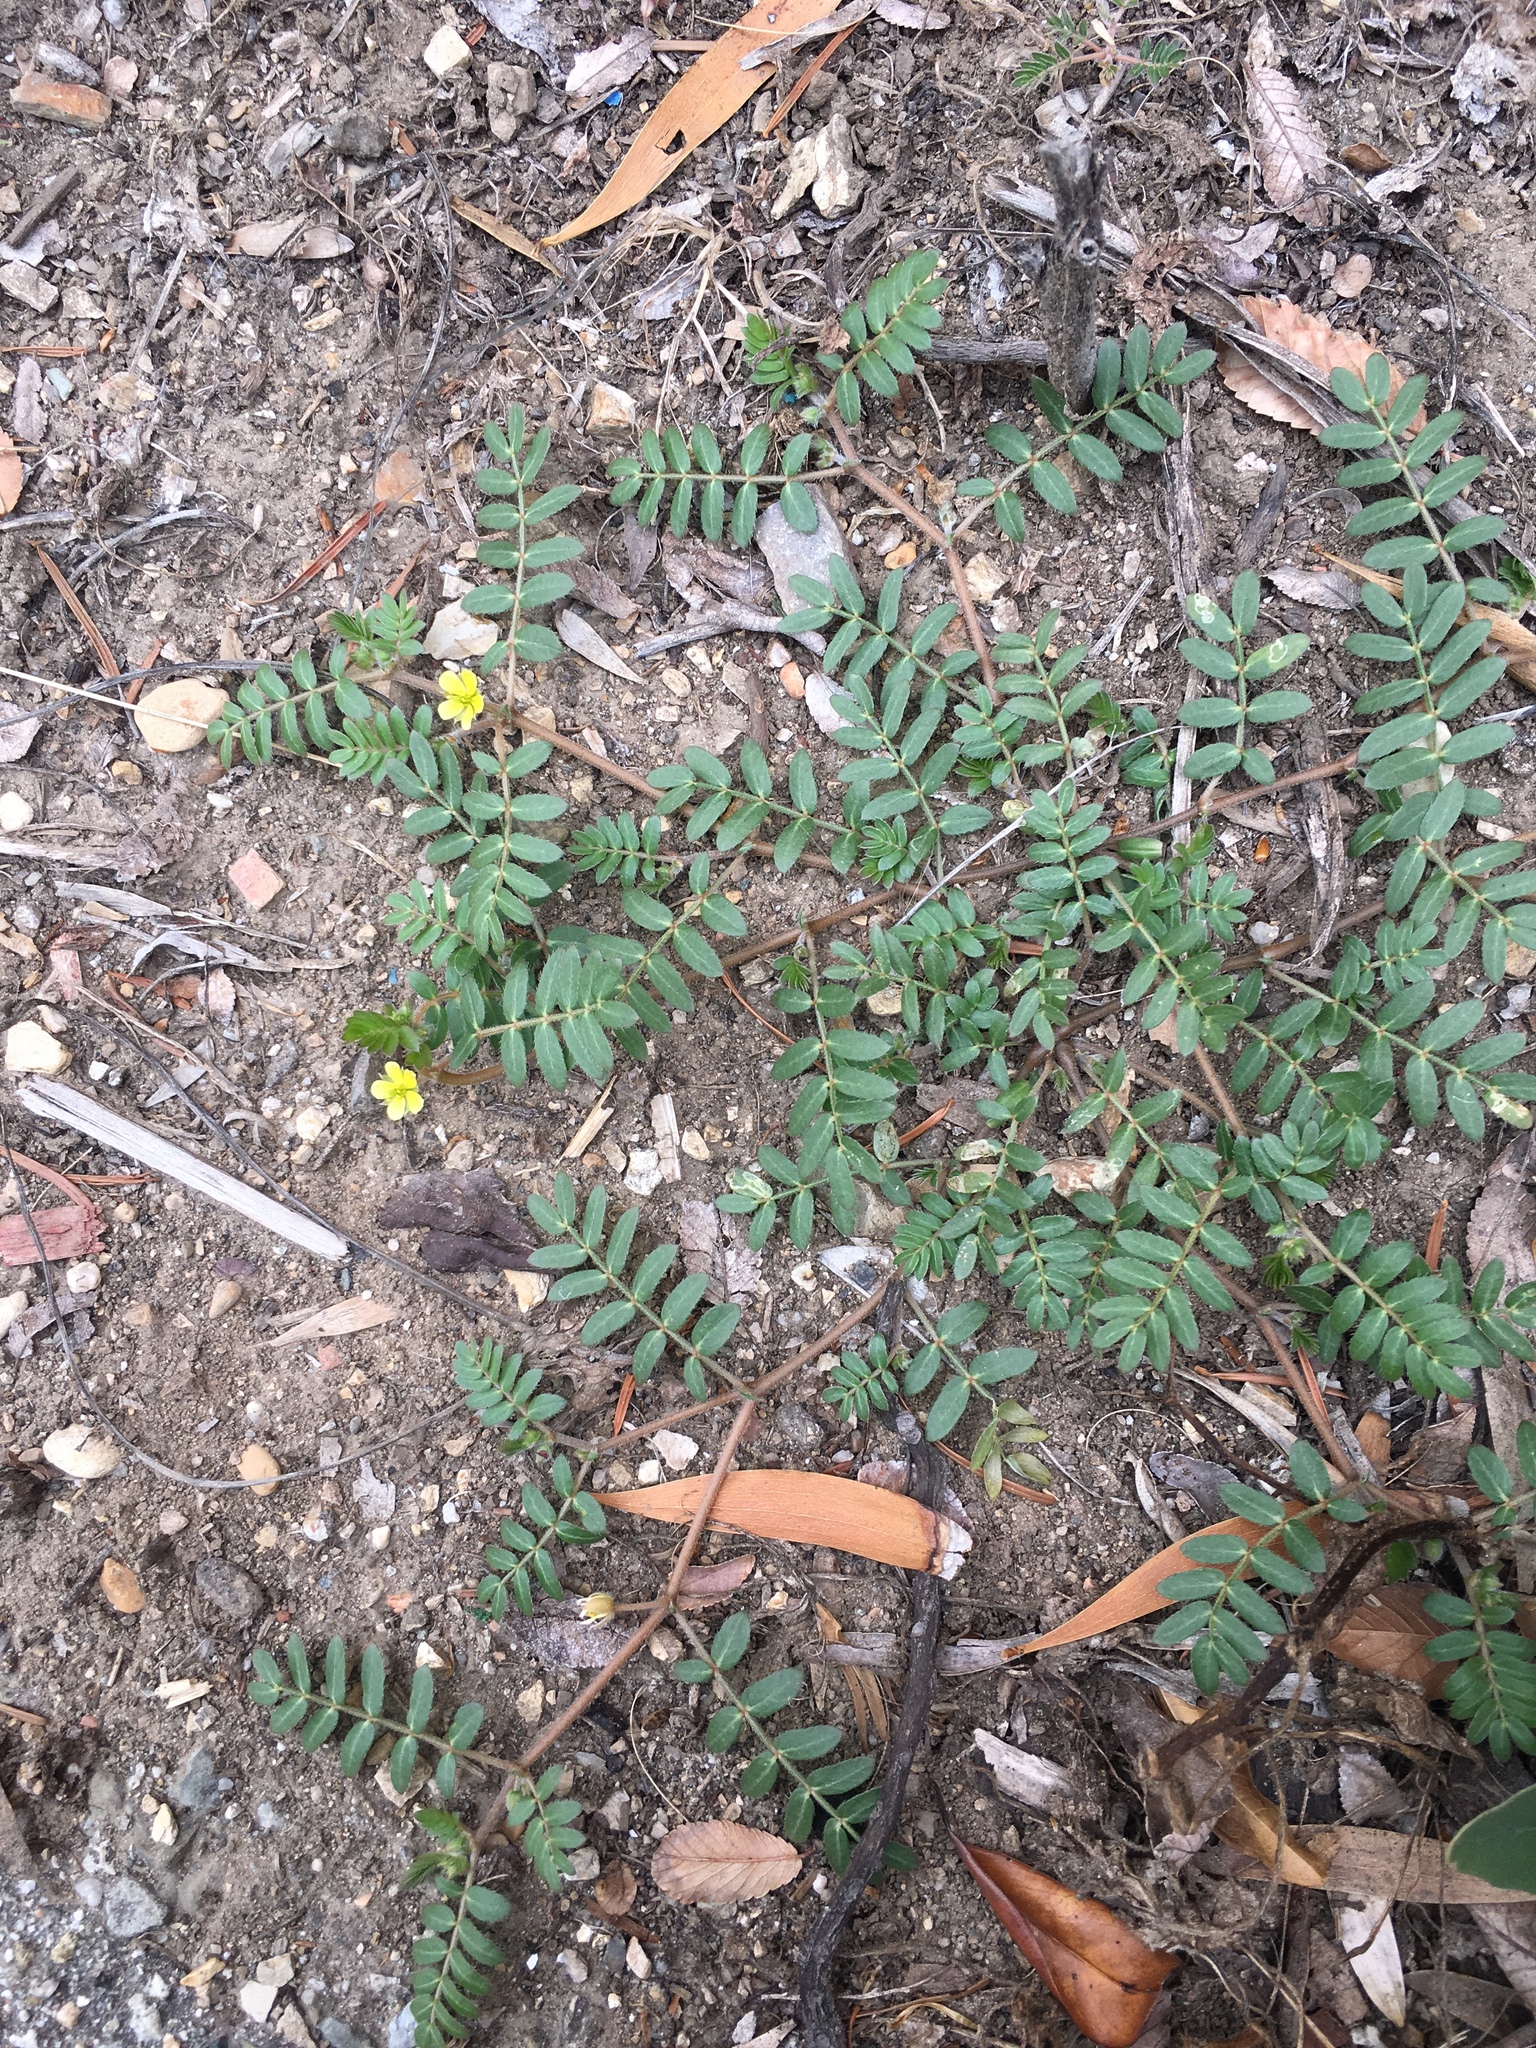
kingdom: Plantae
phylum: Tracheophyta
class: Magnoliopsida
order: Zygophyllales
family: Zygophyllaceae
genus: Tribulus
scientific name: Tribulus terrestris
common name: Puncturevine
